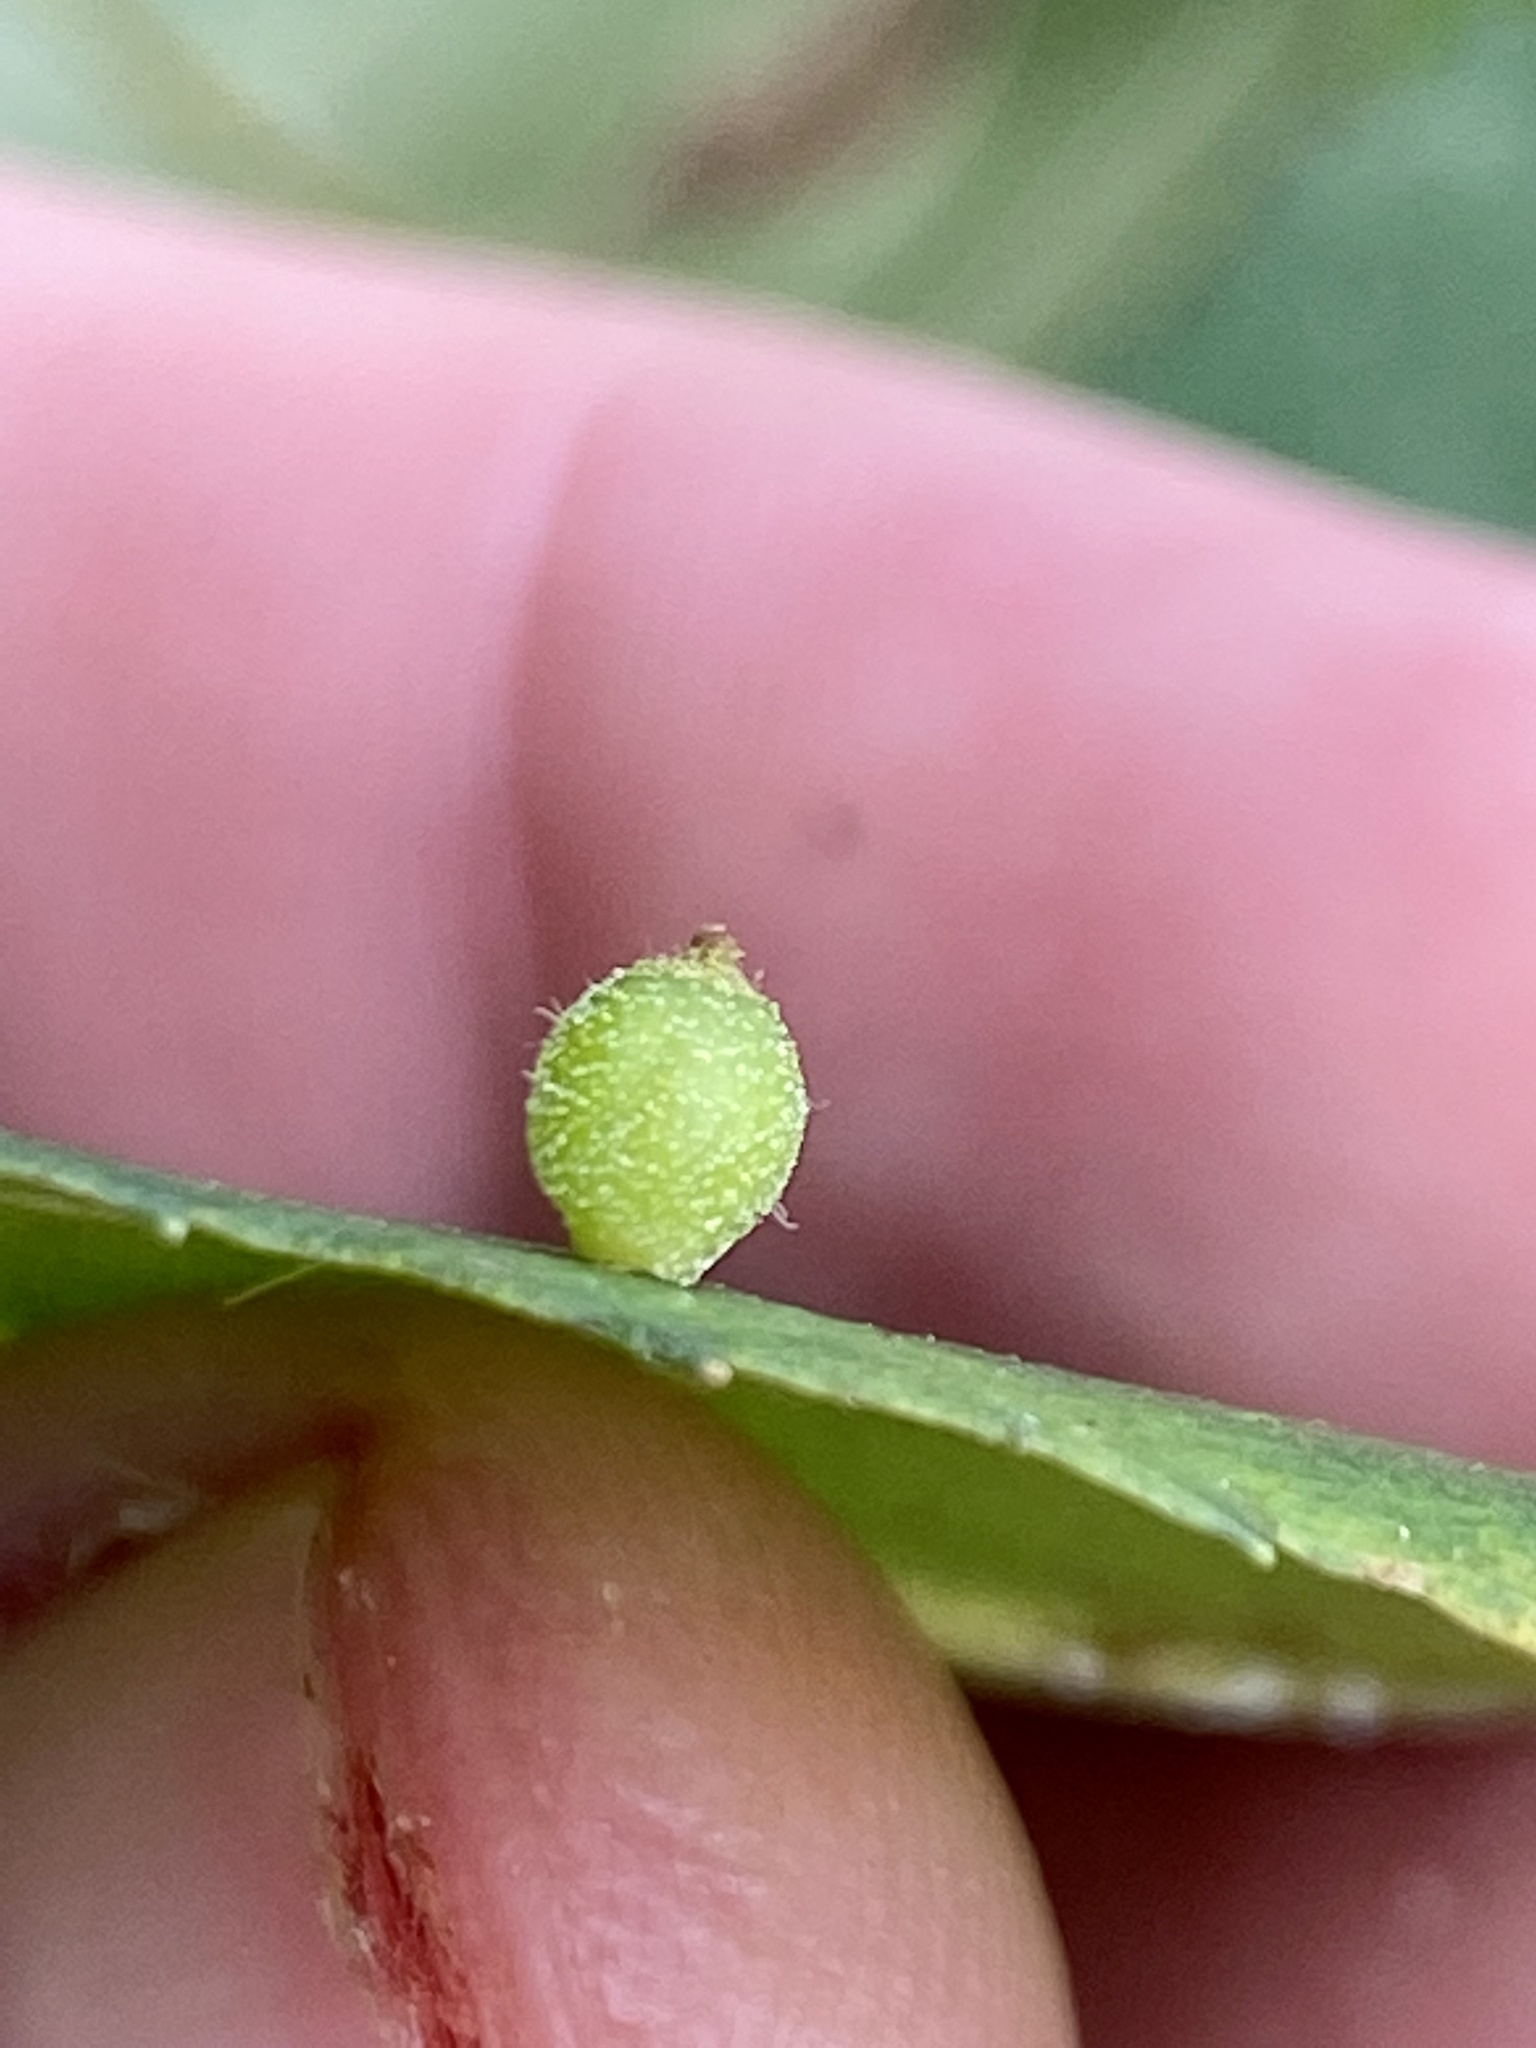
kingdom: Animalia
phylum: Arthropoda
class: Insecta
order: Diptera
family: Cecidomyiidae
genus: Caryomyia
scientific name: Caryomyia viscidolium
